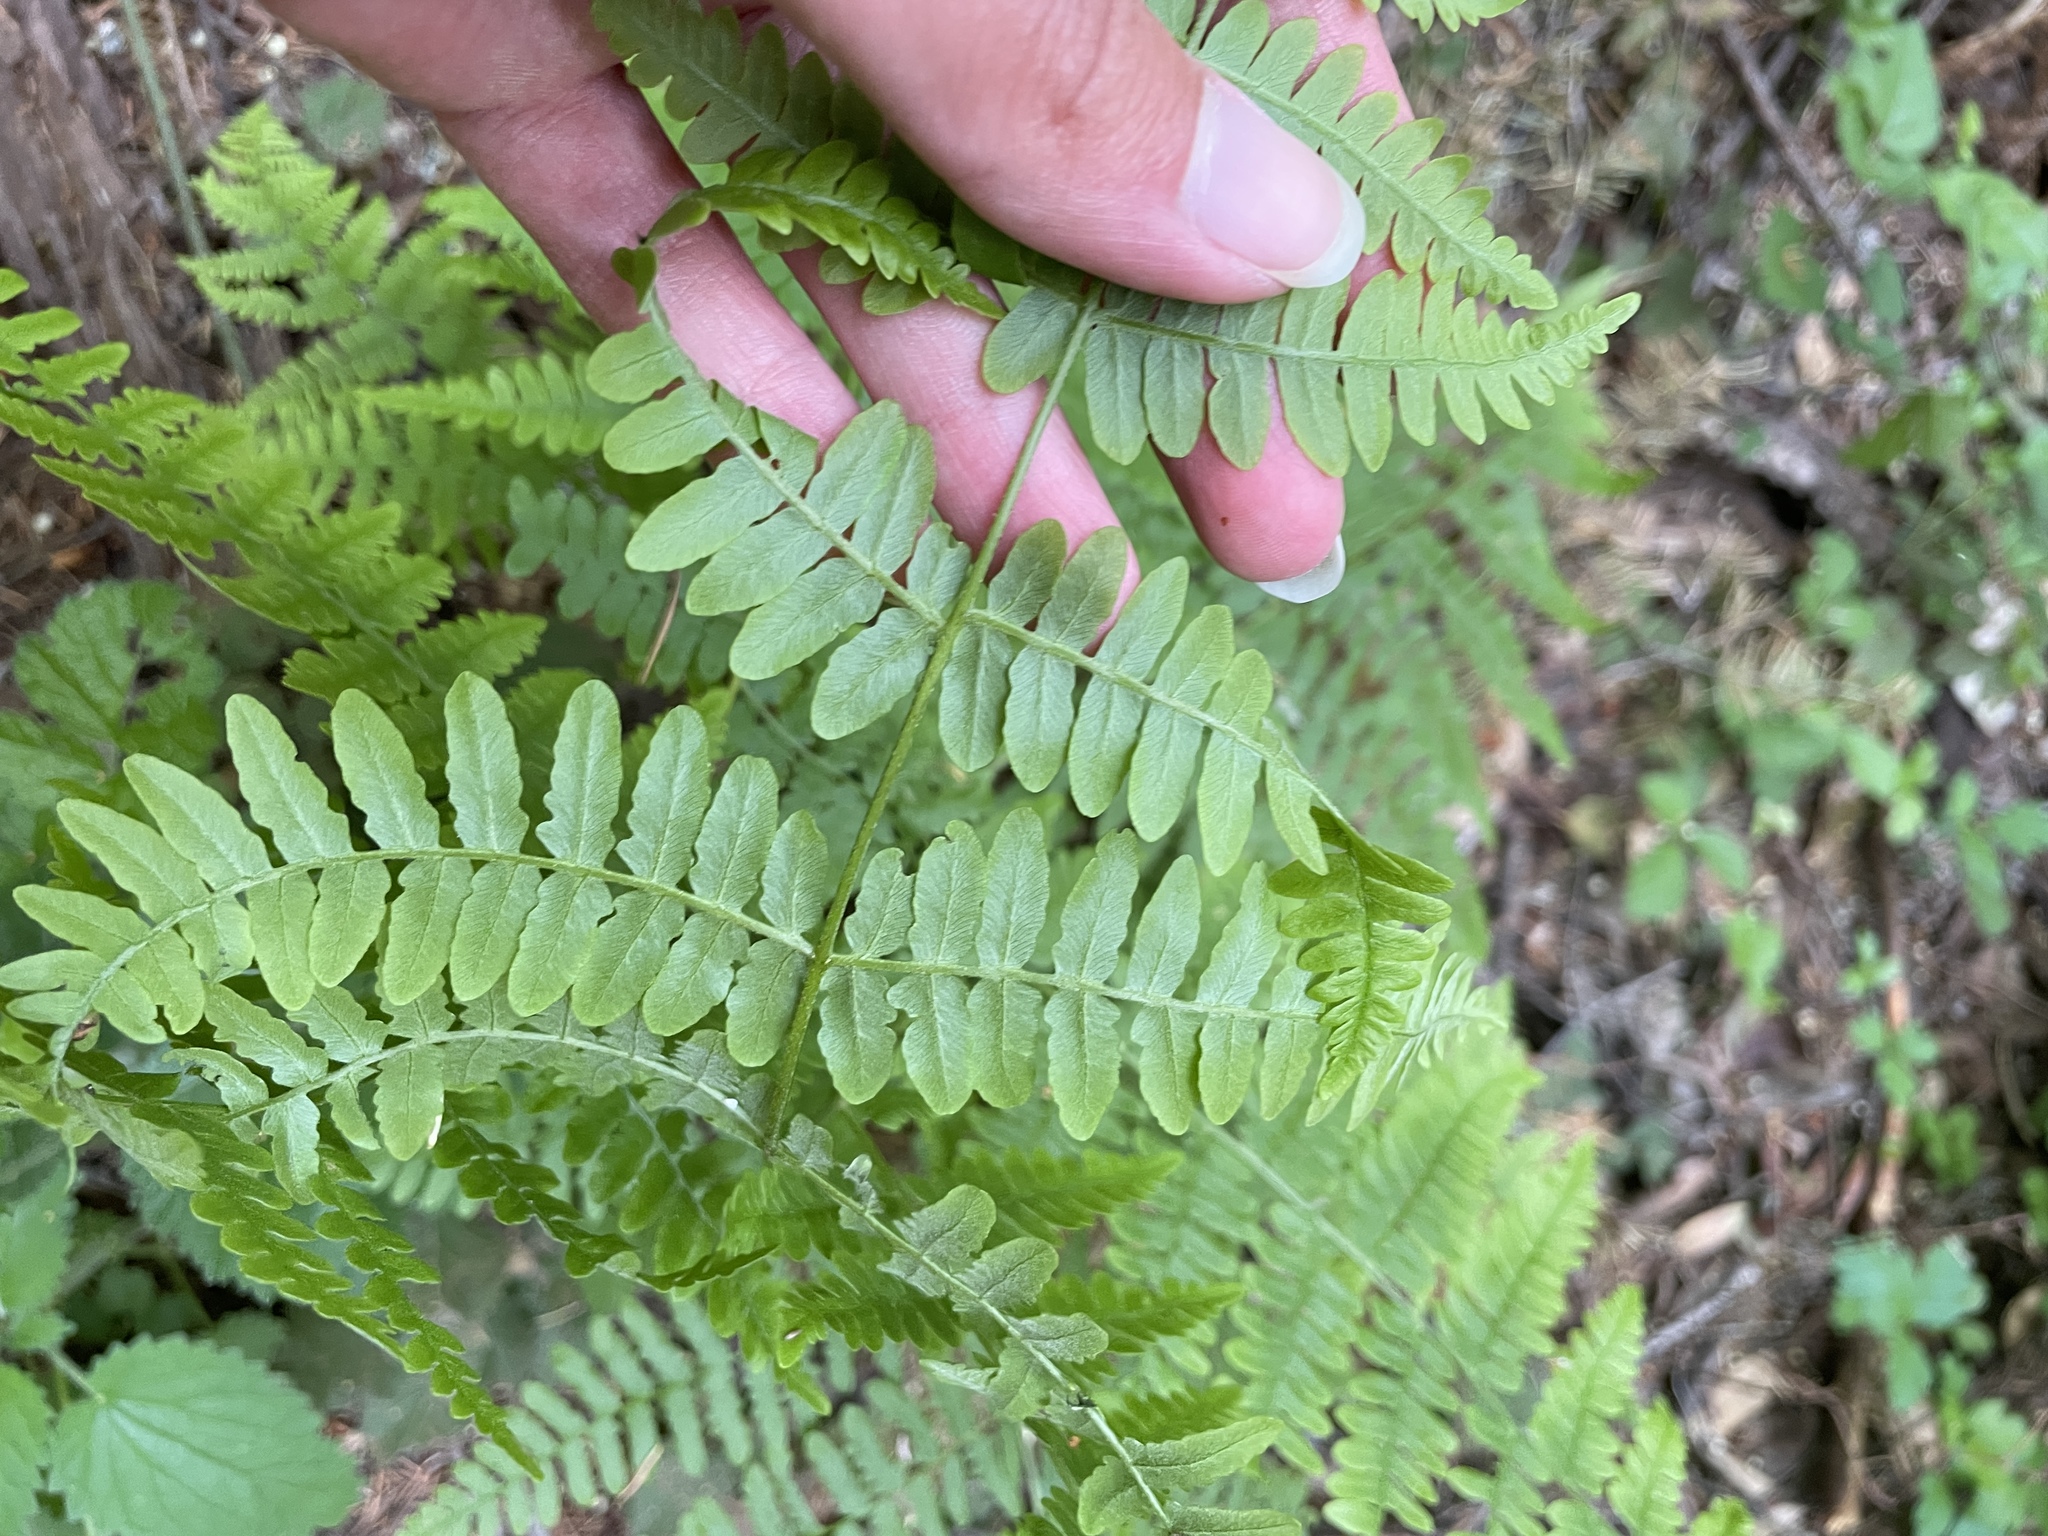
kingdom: Plantae
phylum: Tracheophyta
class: Polypodiopsida
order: Polypodiales
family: Dennstaedtiaceae
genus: Pteridium
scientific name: Pteridium aquilinum
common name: Bracken
